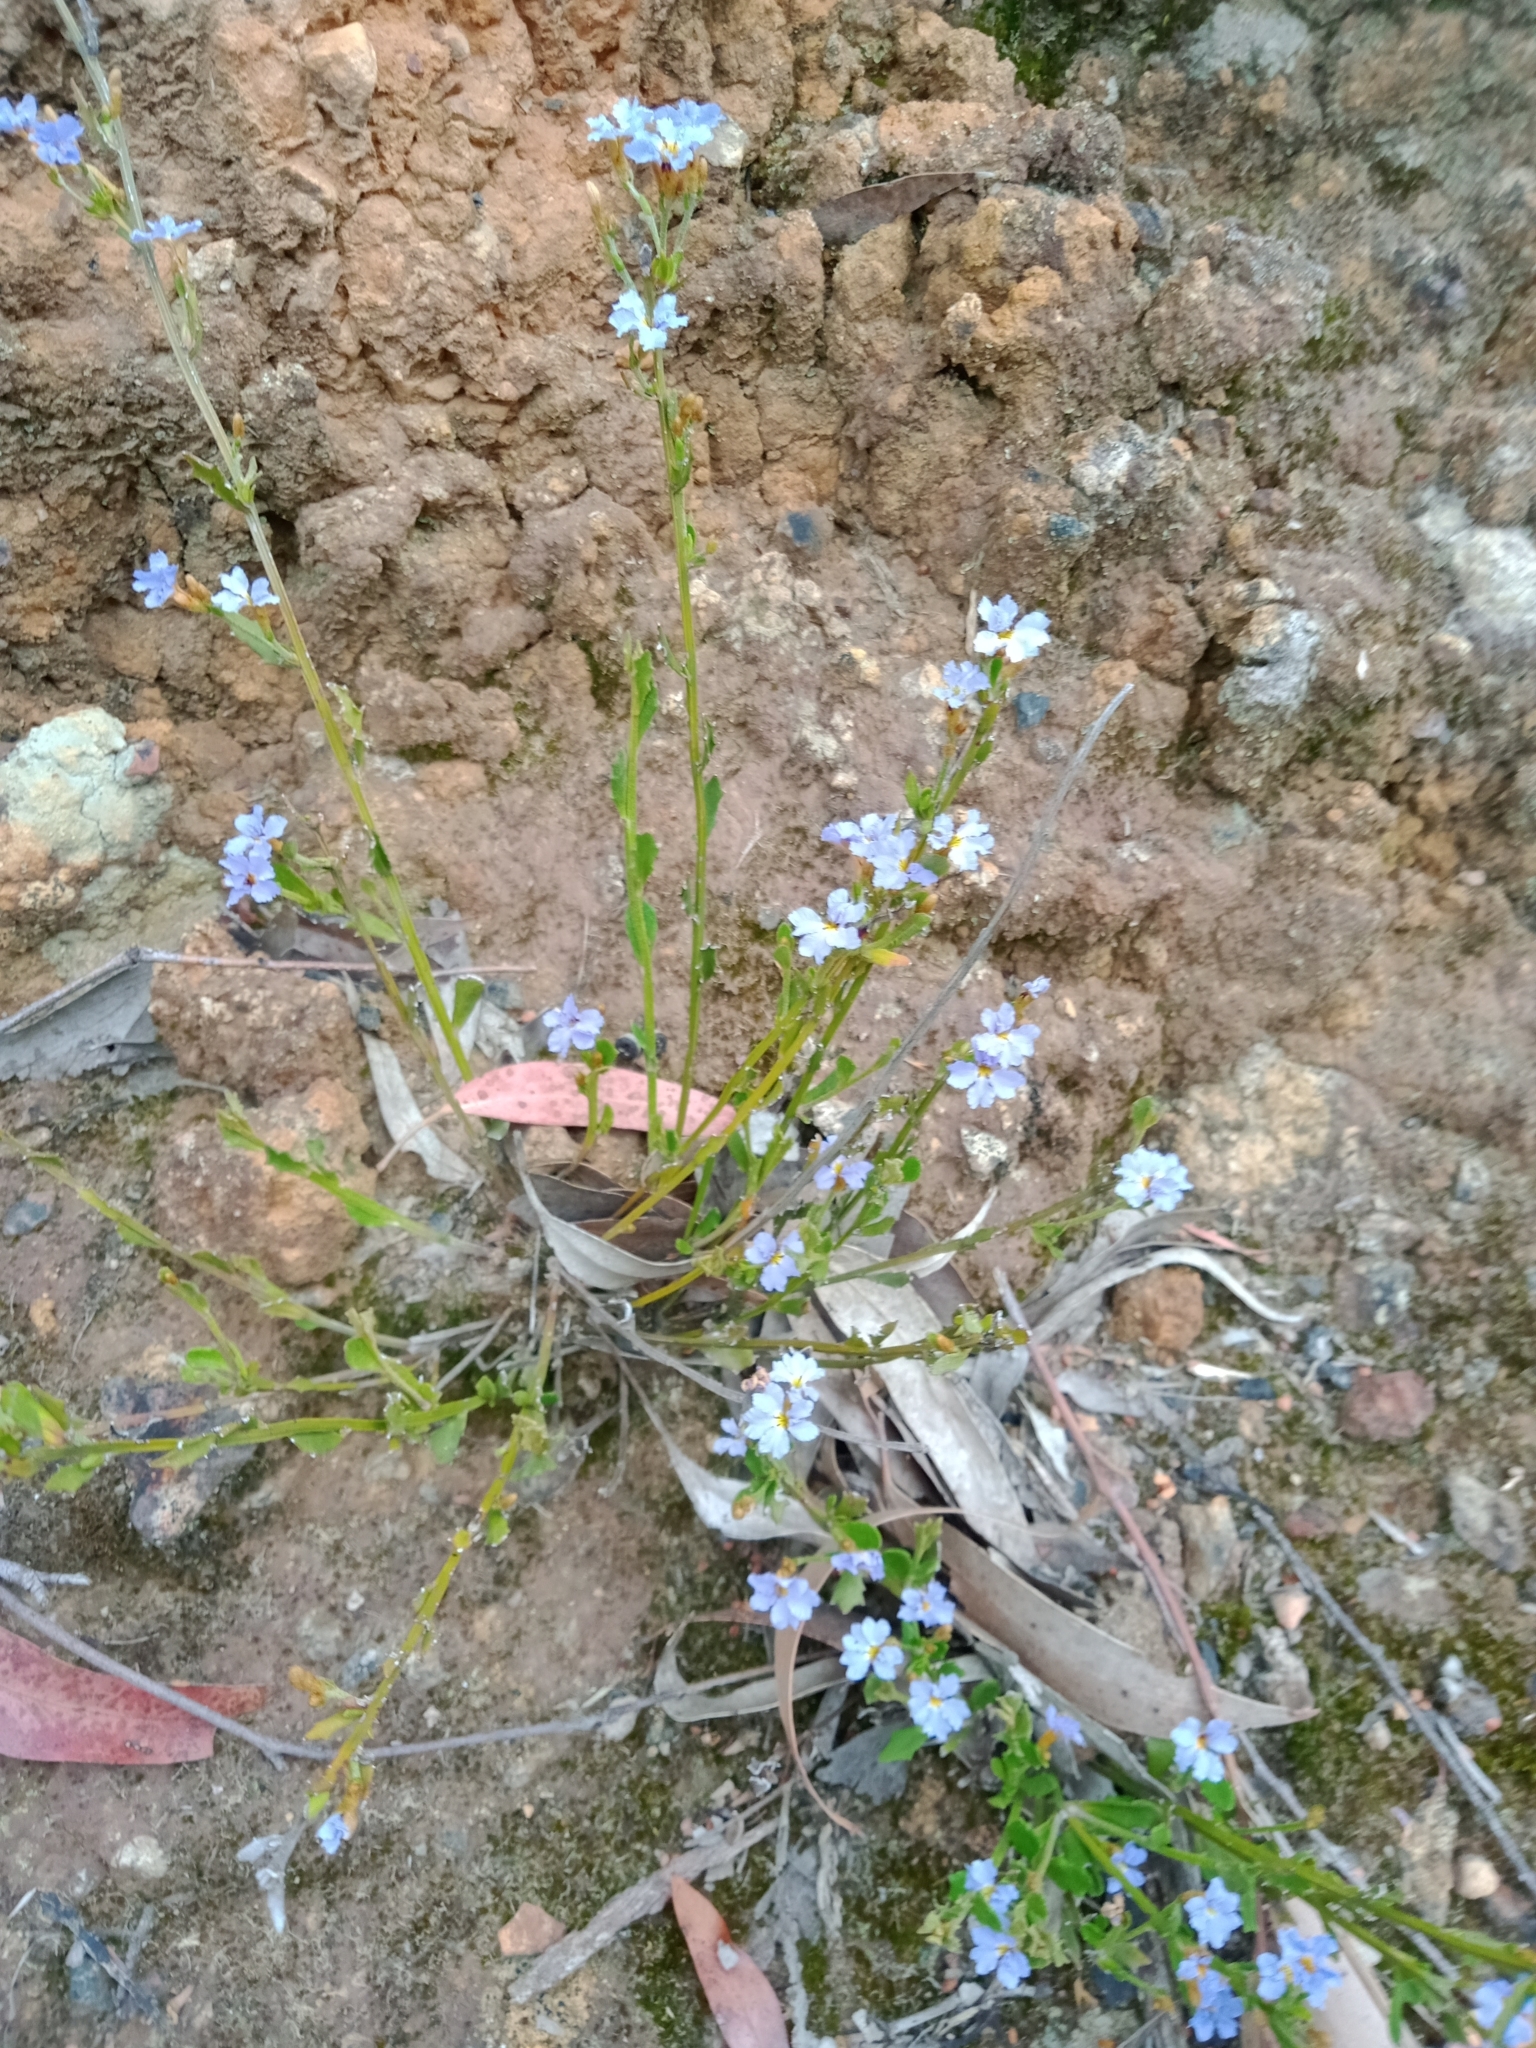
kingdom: Plantae
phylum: Tracheophyta
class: Magnoliopsida
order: Asterales
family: Goodeniaceae
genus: Dampiera
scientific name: Dampiera stricta
